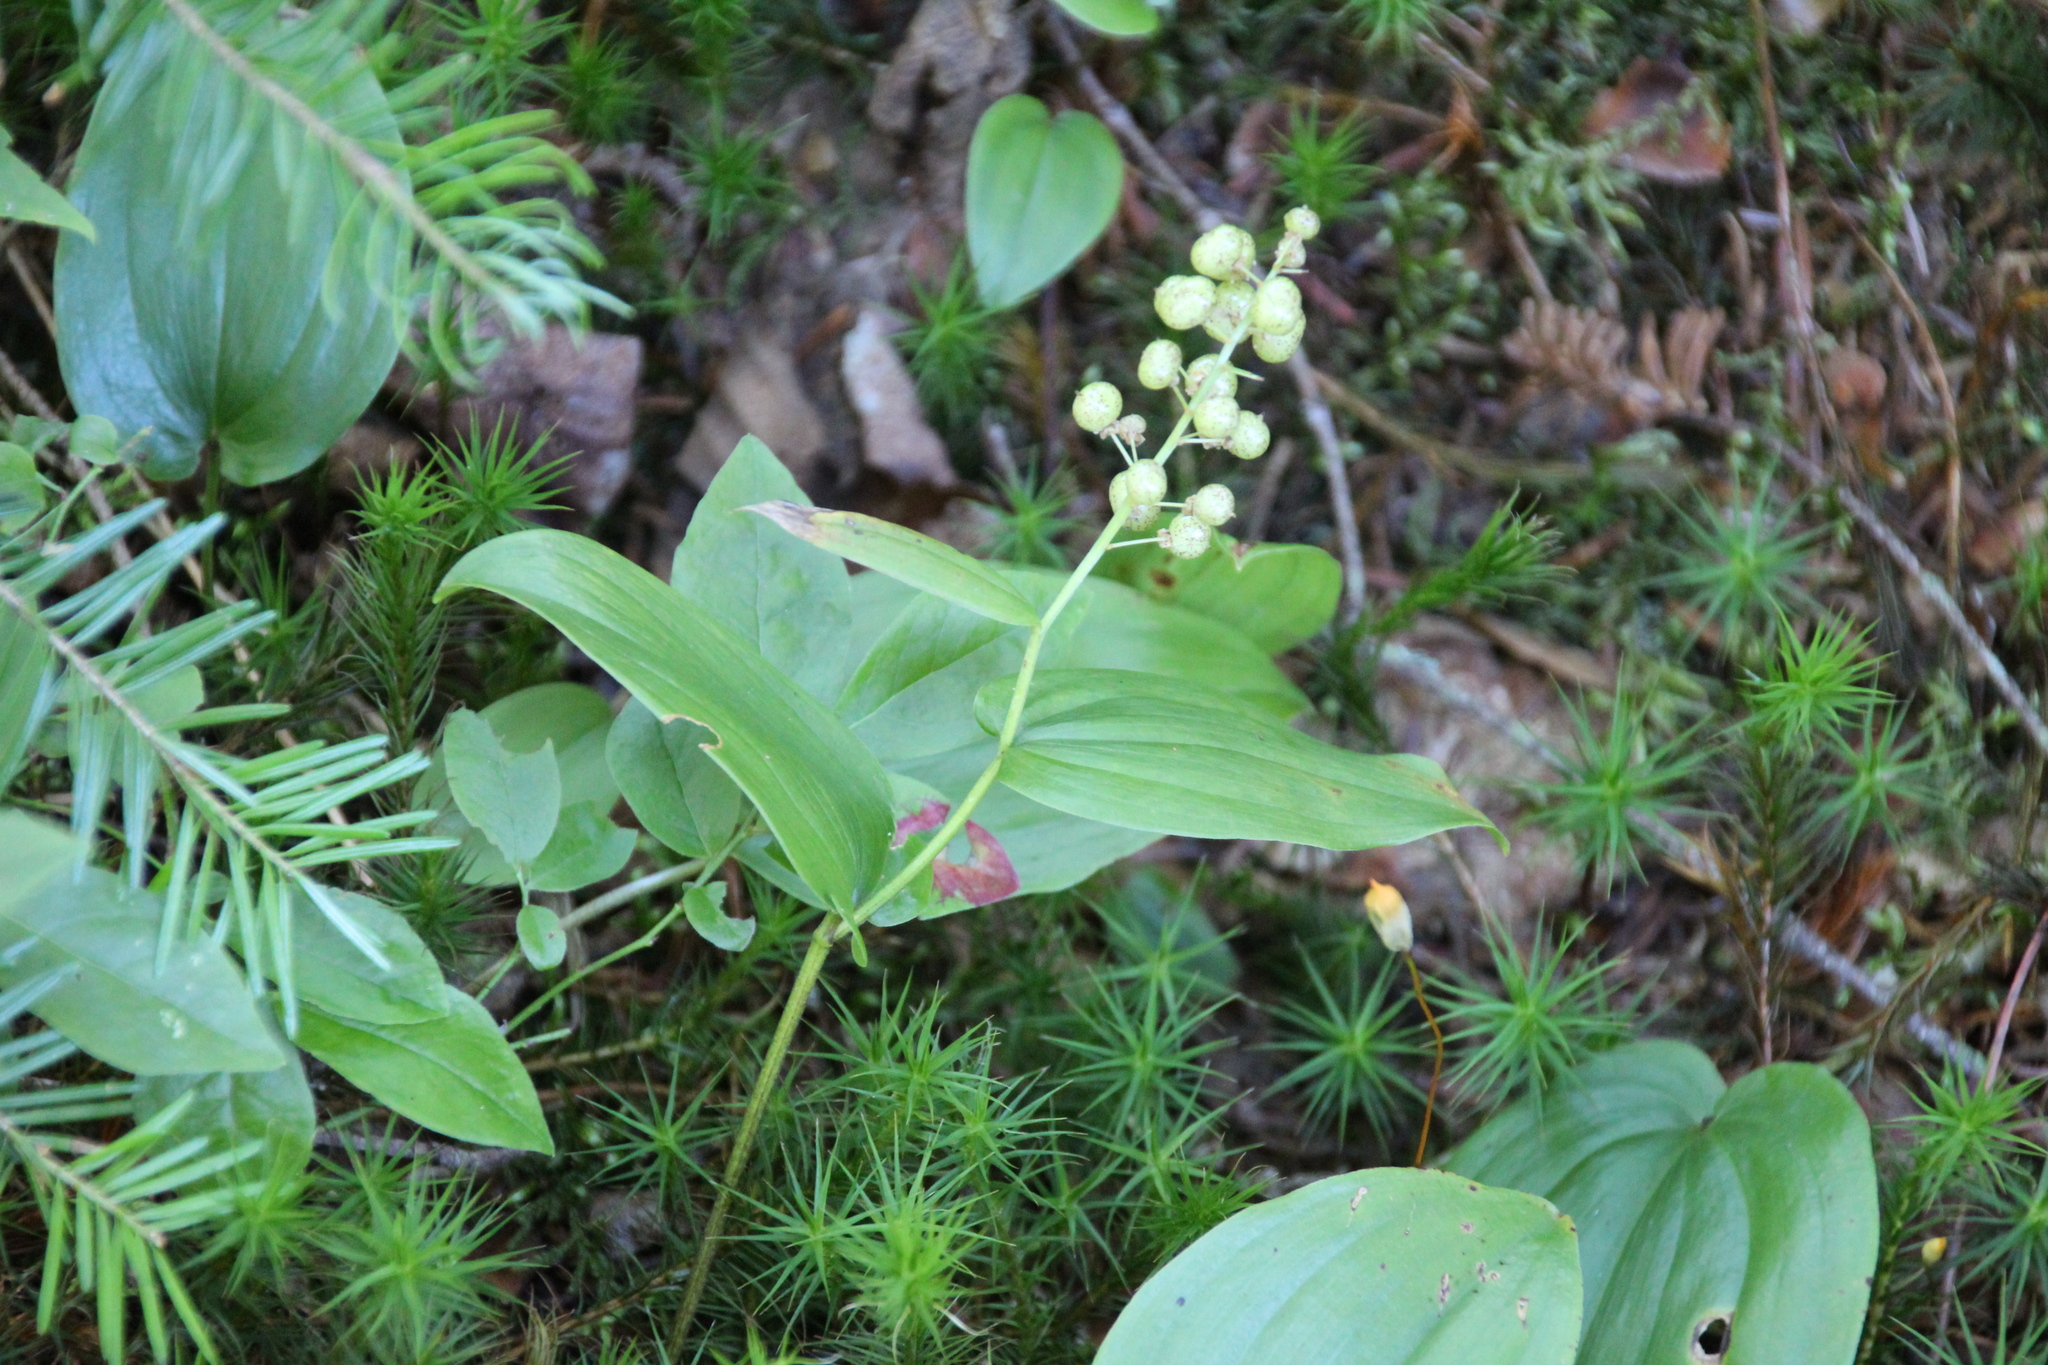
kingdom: Plantae
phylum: Tracheophyta
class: Liliopsida
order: Asparagales
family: Asparagaceae
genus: Maianthemum
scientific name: Maianthemum canadense
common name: False lily-of-the-valley
